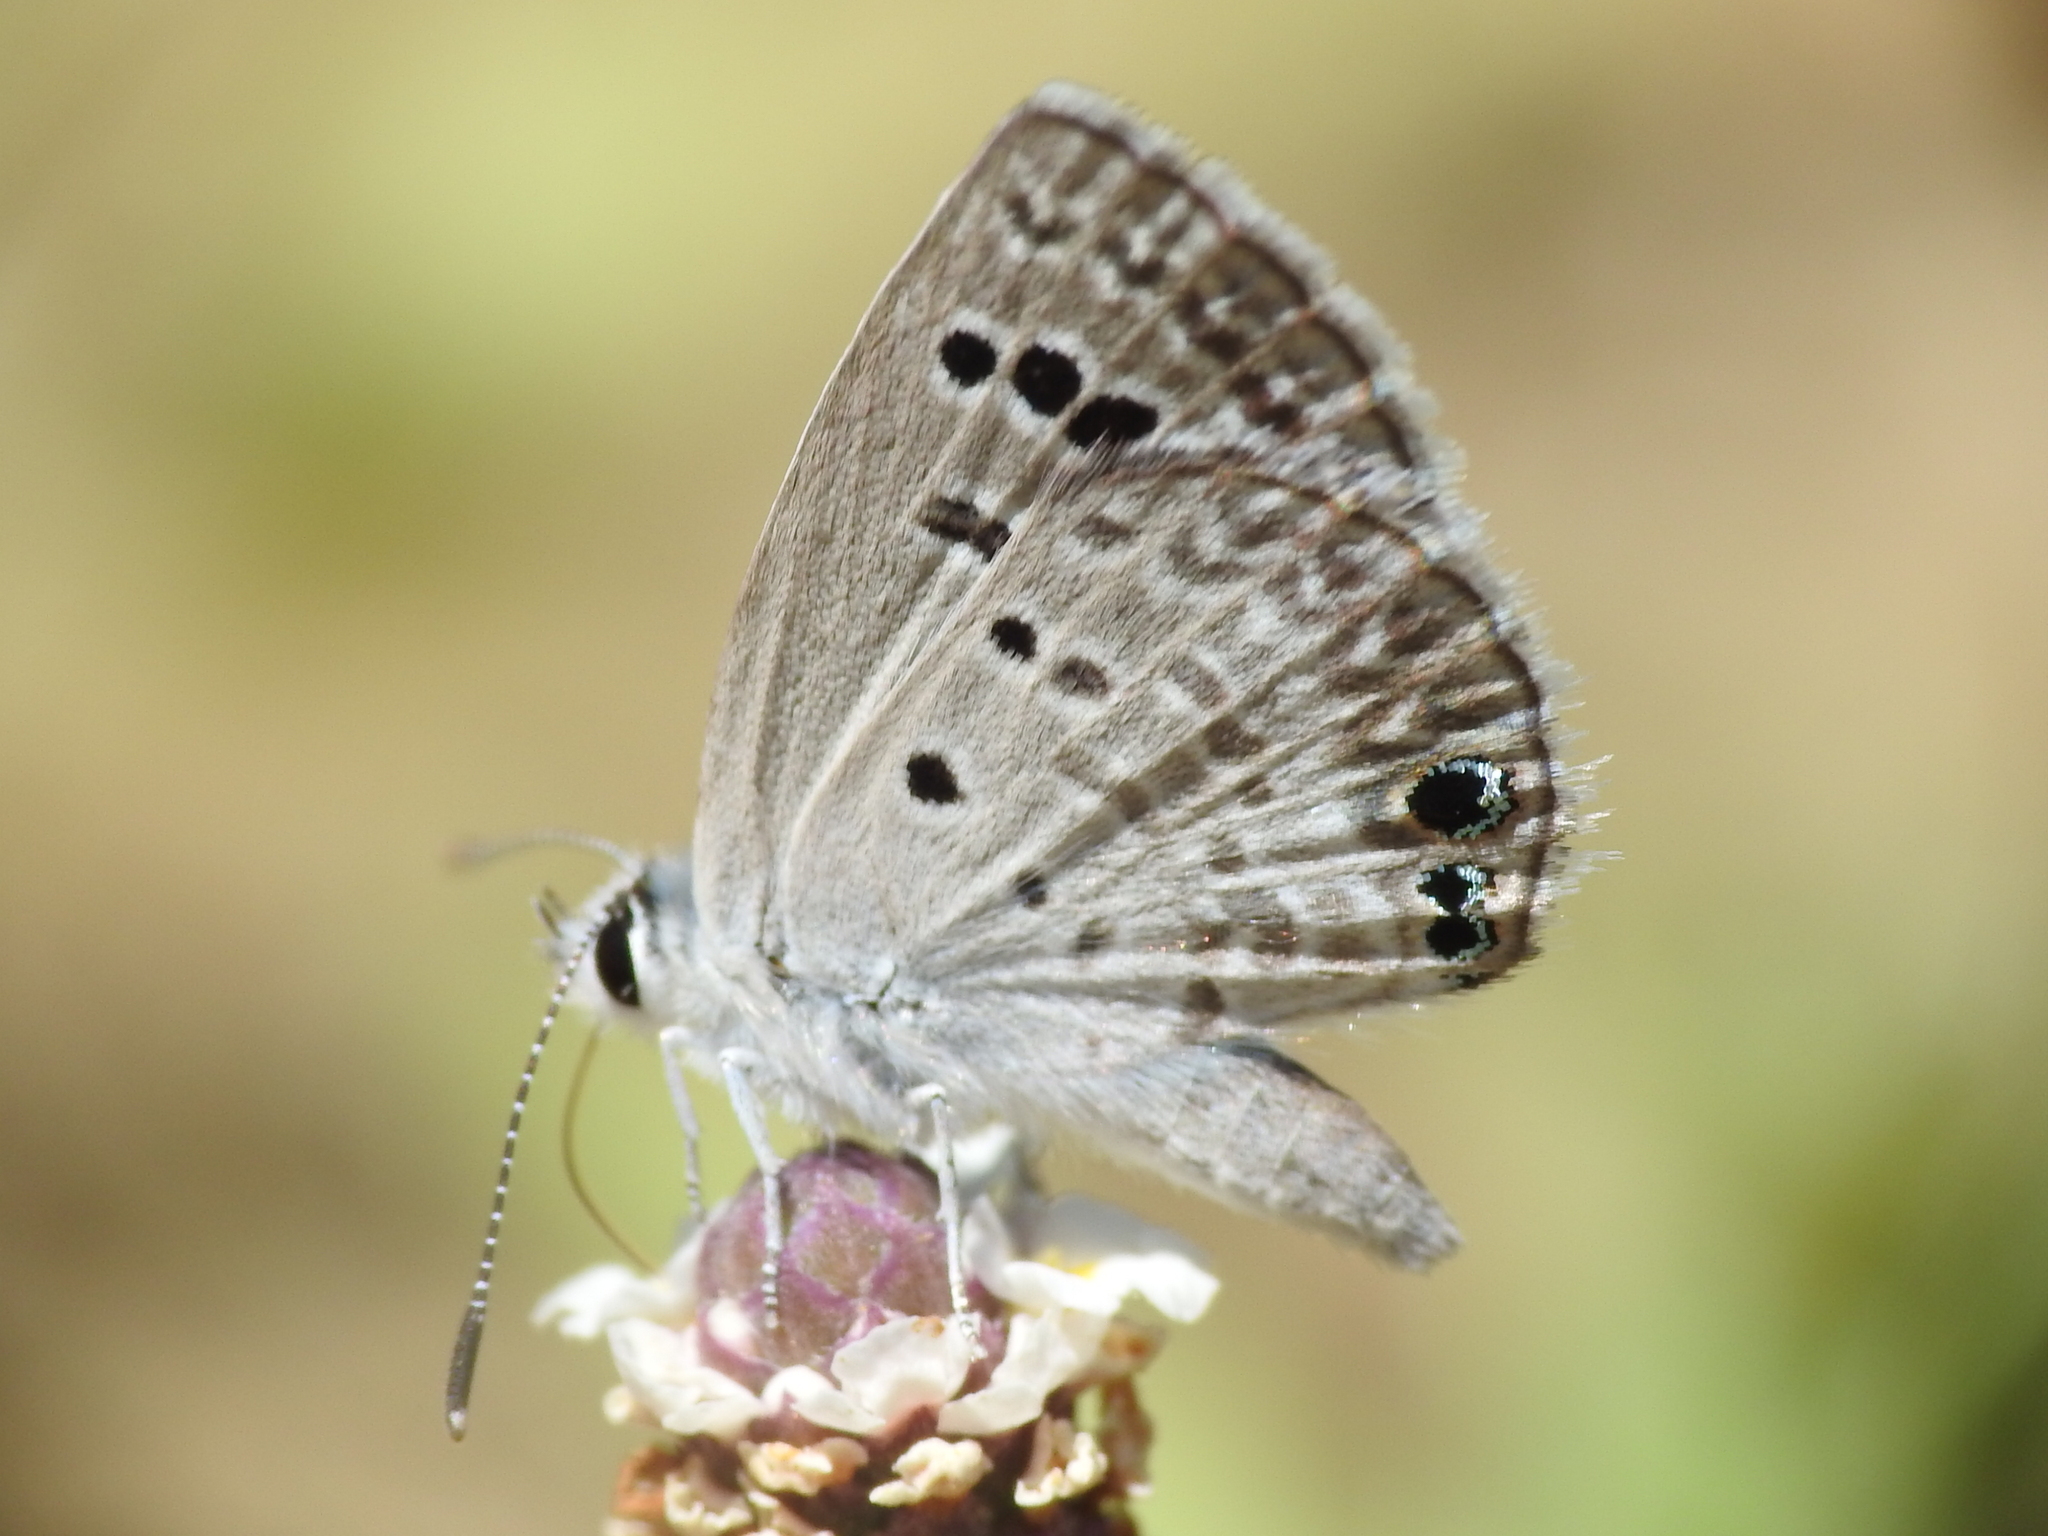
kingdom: Animalia
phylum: Arthropoda
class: Insecta
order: Lepidoptera
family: Lycaenidae
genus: Echinargus
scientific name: Echinargus isola
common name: Reakirt's blue
